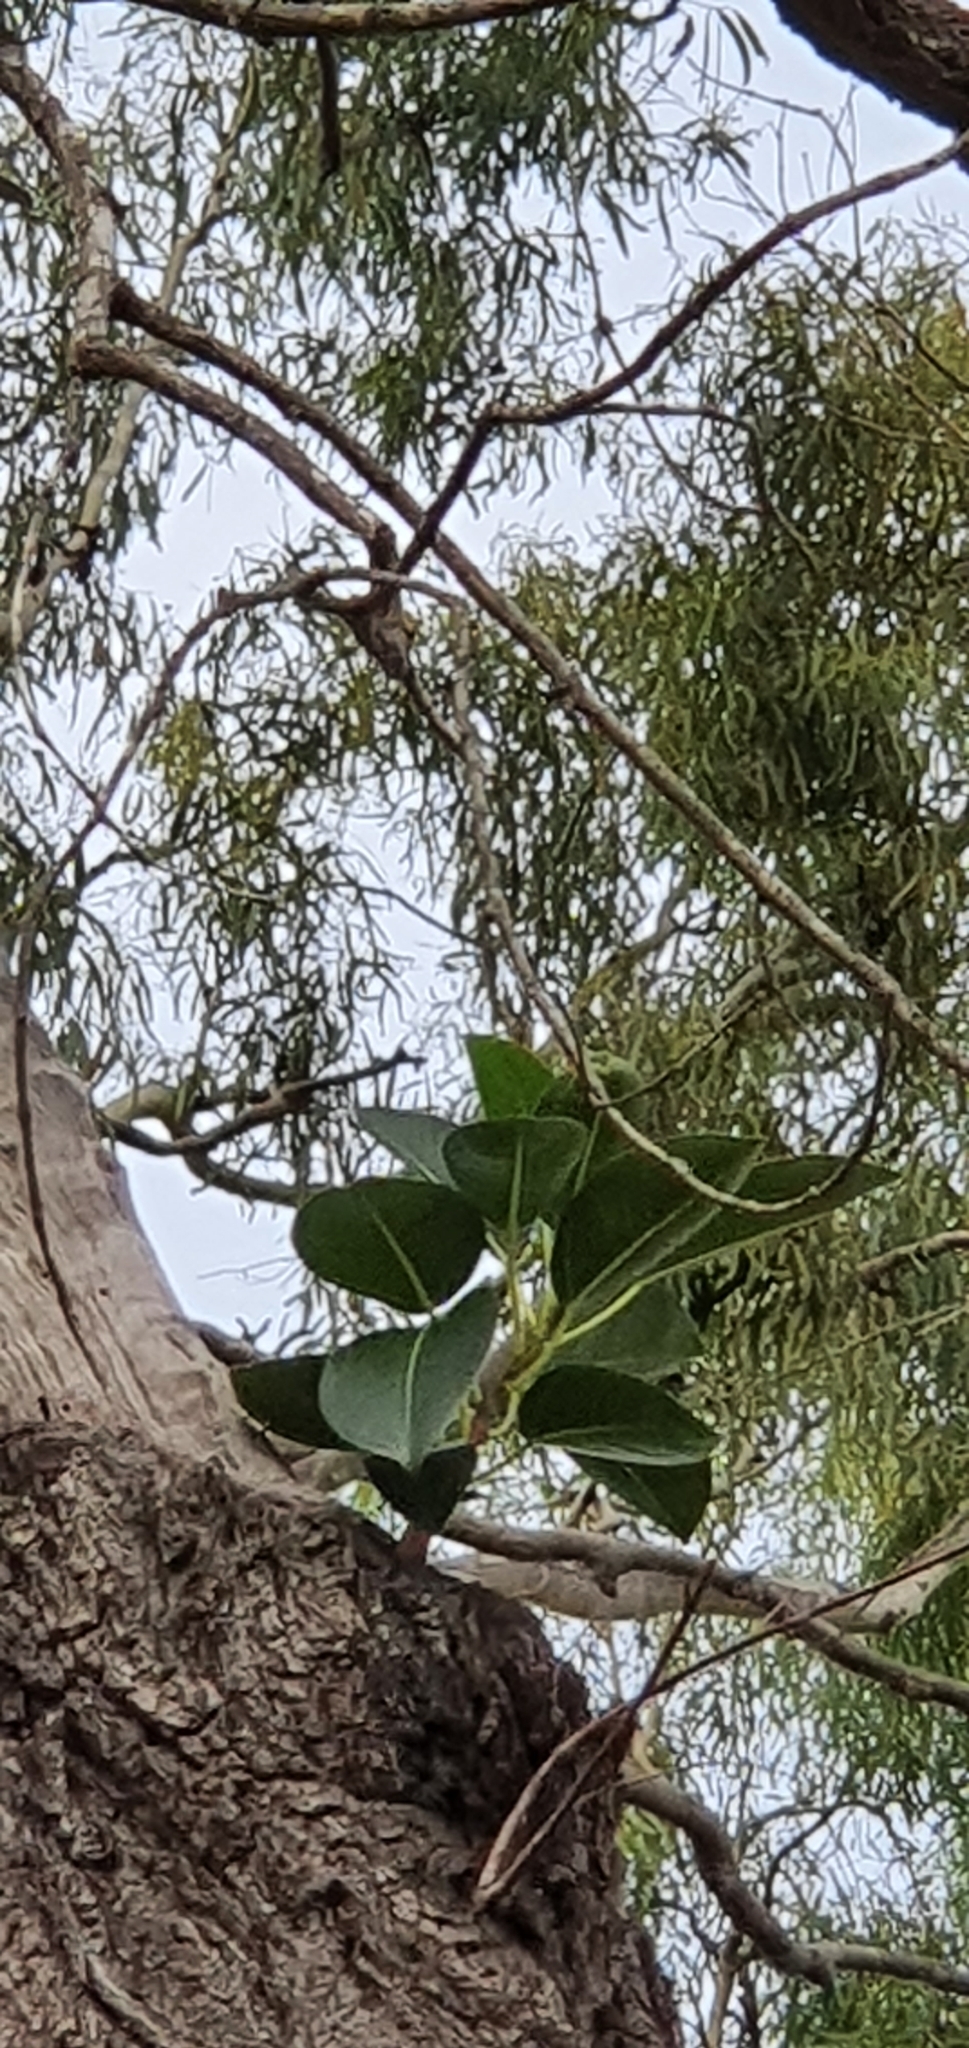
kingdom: Plantae
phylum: Tracheophyta
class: Magnoliopsida
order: Rosales
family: Moraceae
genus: Ficus
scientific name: Ficus rubiginosa
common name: Port jackson fig
